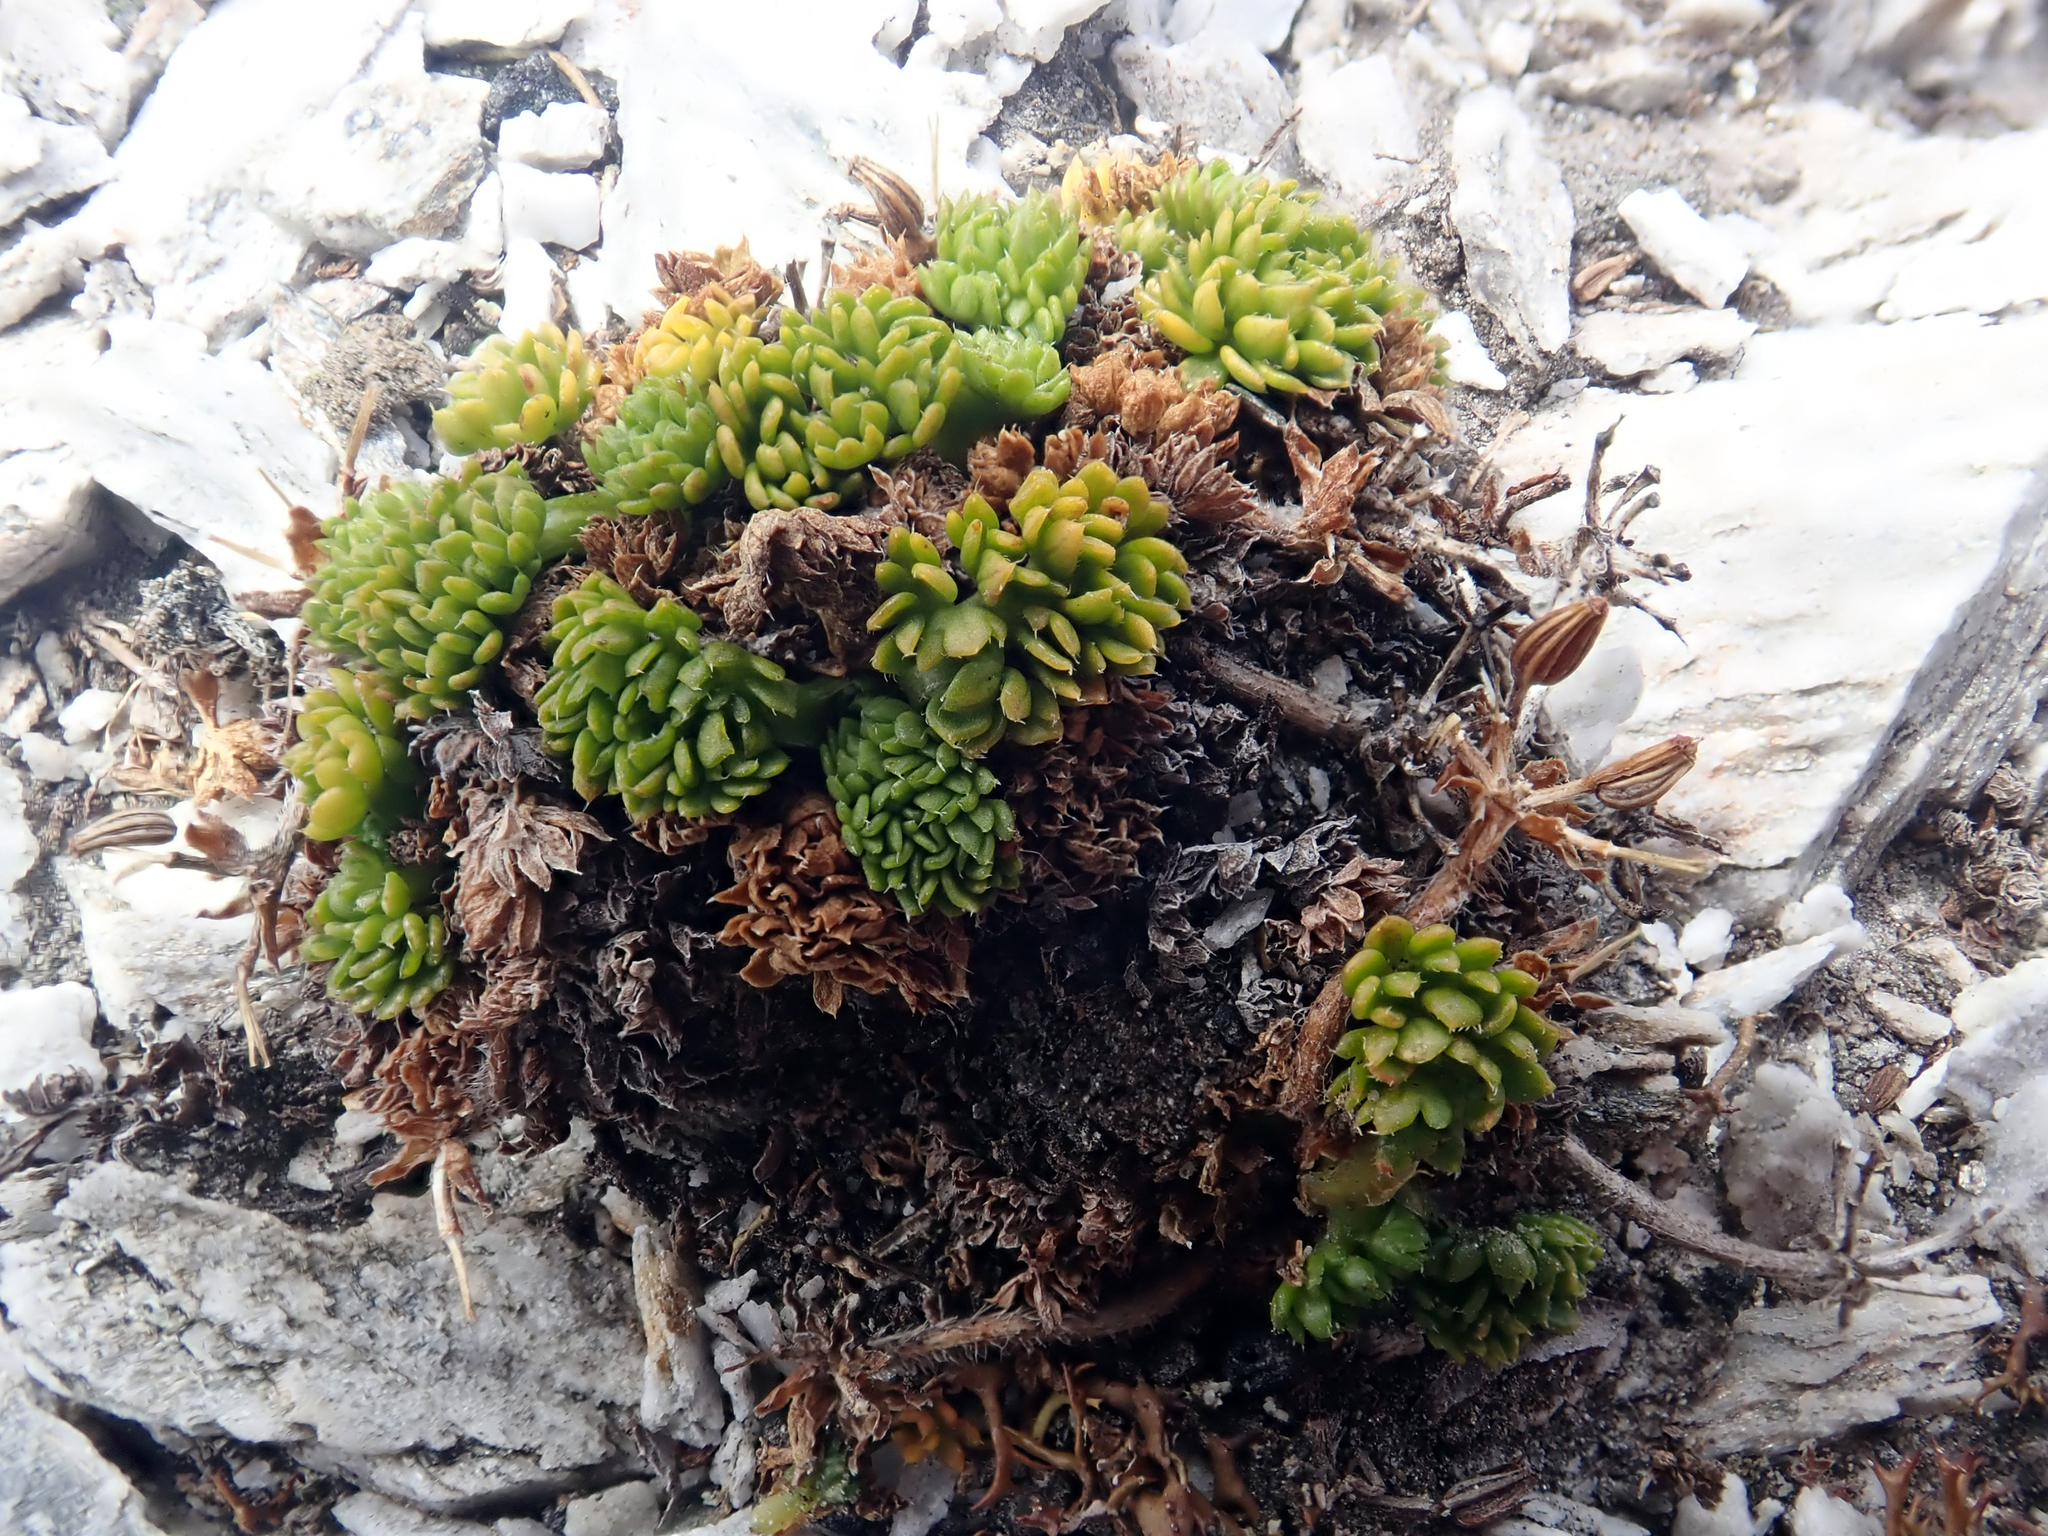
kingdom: Plantae
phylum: Tracheophyta
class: Magnoliopsida
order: Apiales
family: Apiaceae
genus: Chaerophyllum
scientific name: Chaerophyllum colensoi
